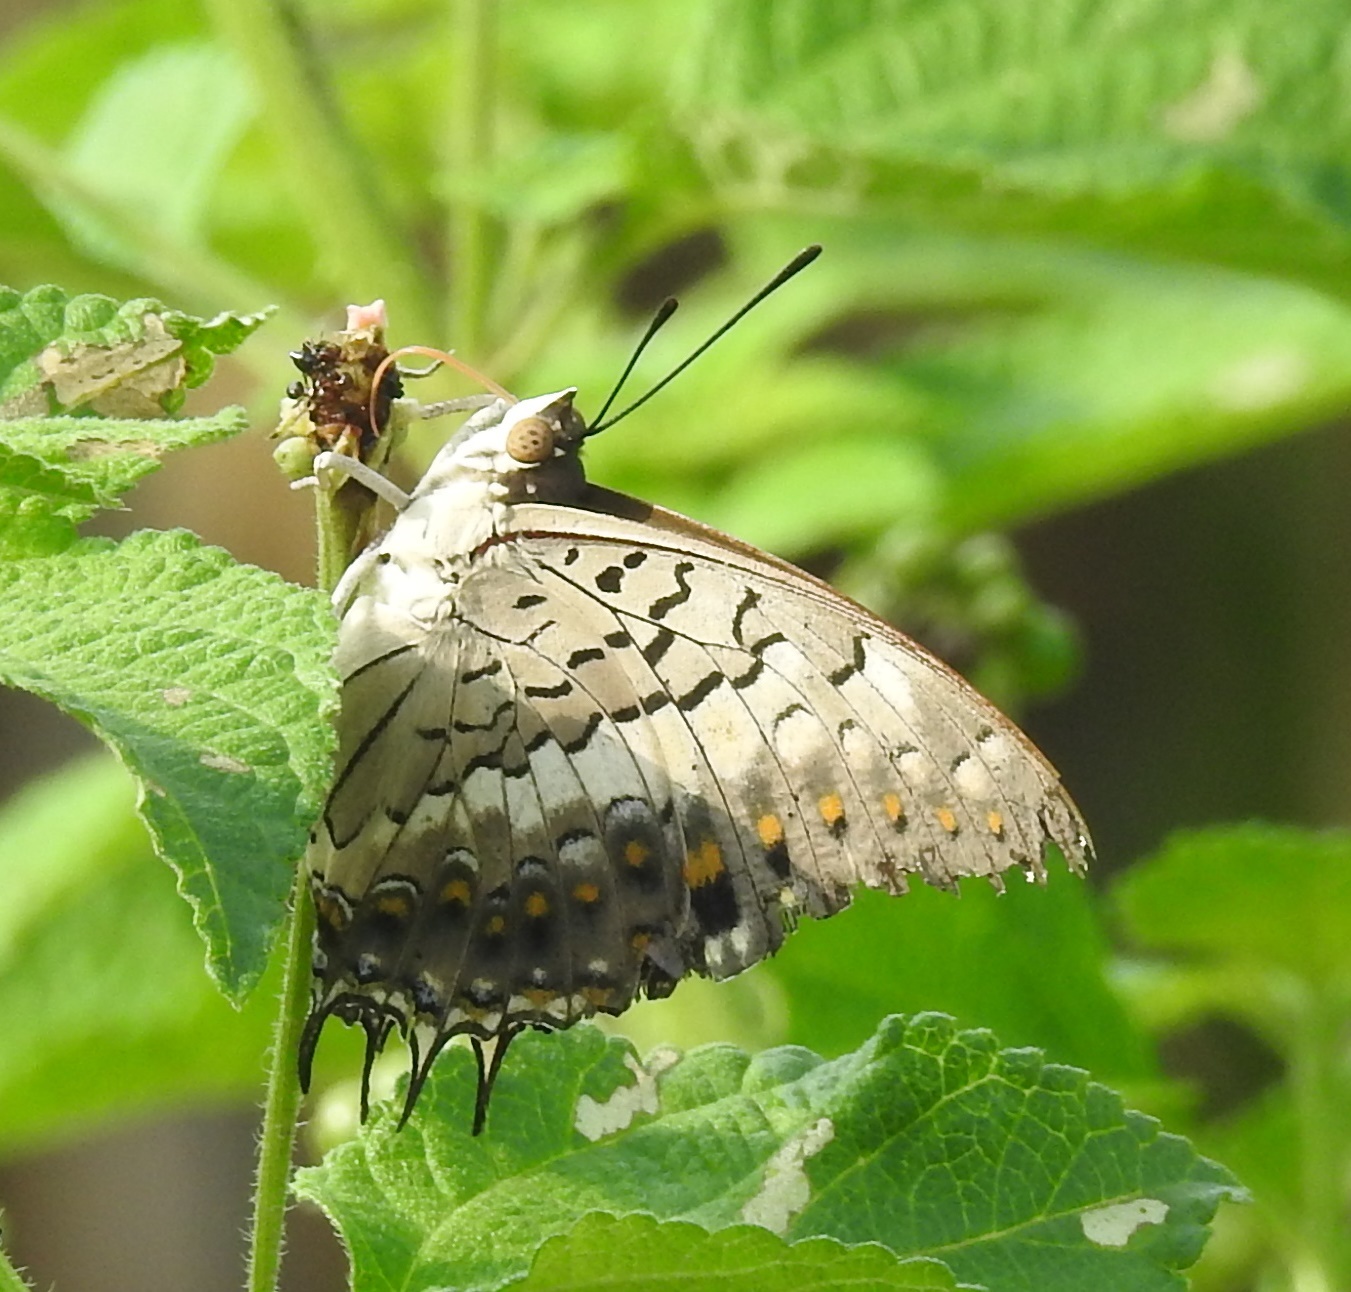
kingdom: Animalia
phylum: Arthropoda
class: Insecta
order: Lepidoptera
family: Nymphalidae
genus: Charaxes
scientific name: Charaxes solon
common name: Black rajah
